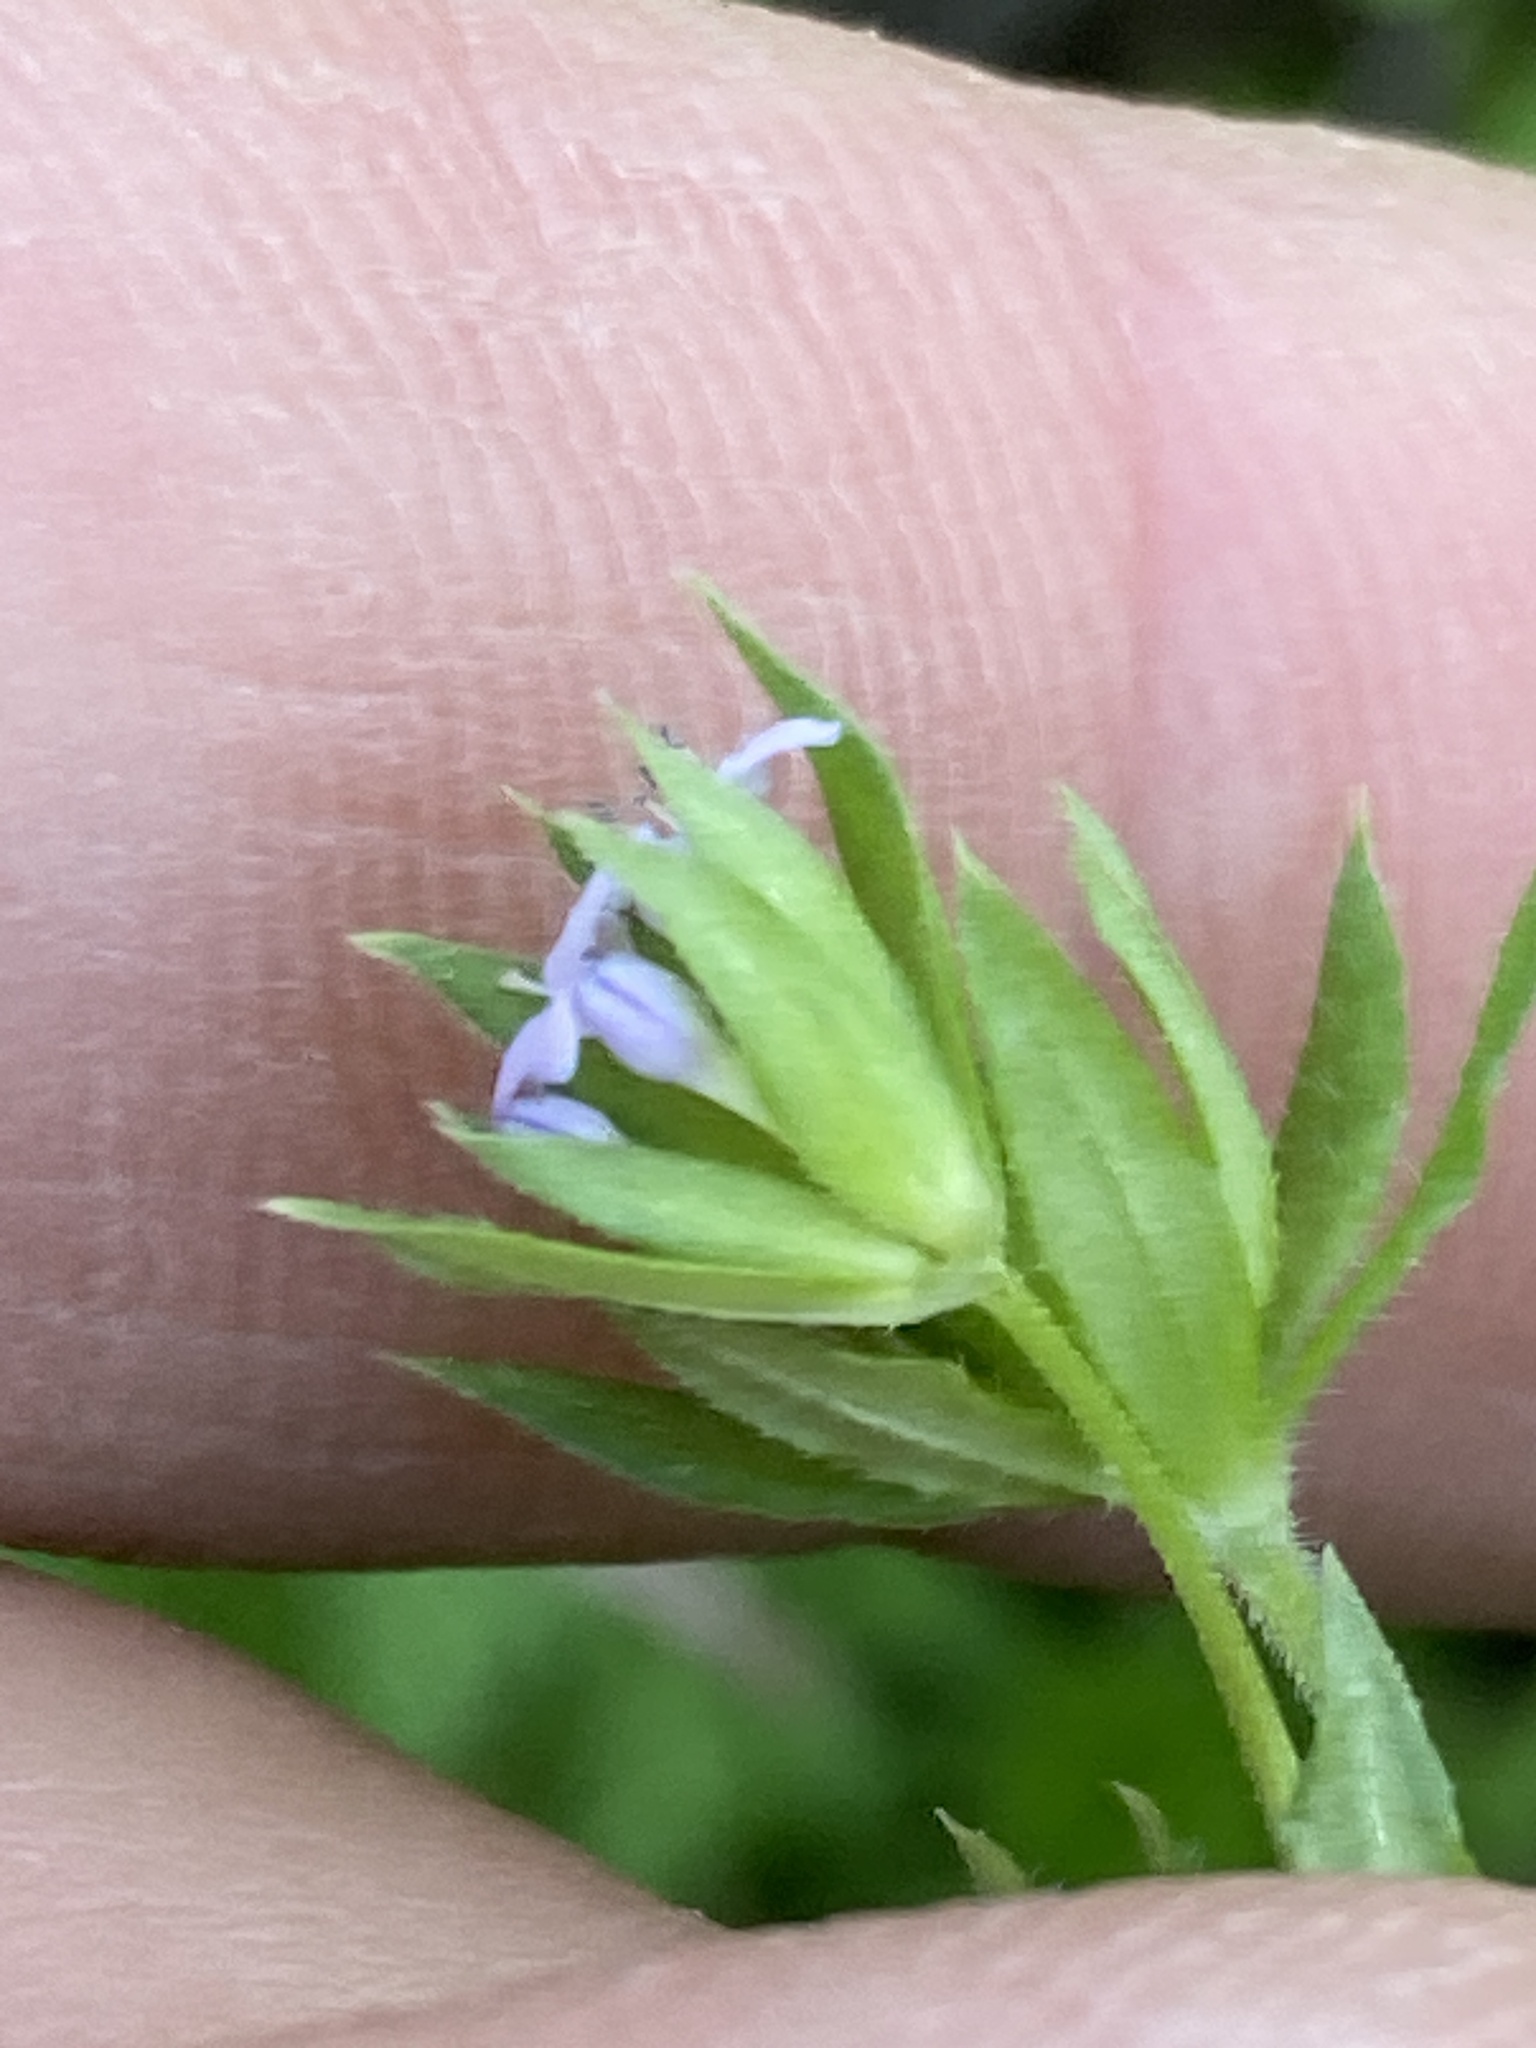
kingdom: Plantae
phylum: Tracheophyta
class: Magnoliopsida
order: Gentianales
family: Rubiaceae
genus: Sherardia
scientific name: Sherardia arvensis
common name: Field madder
